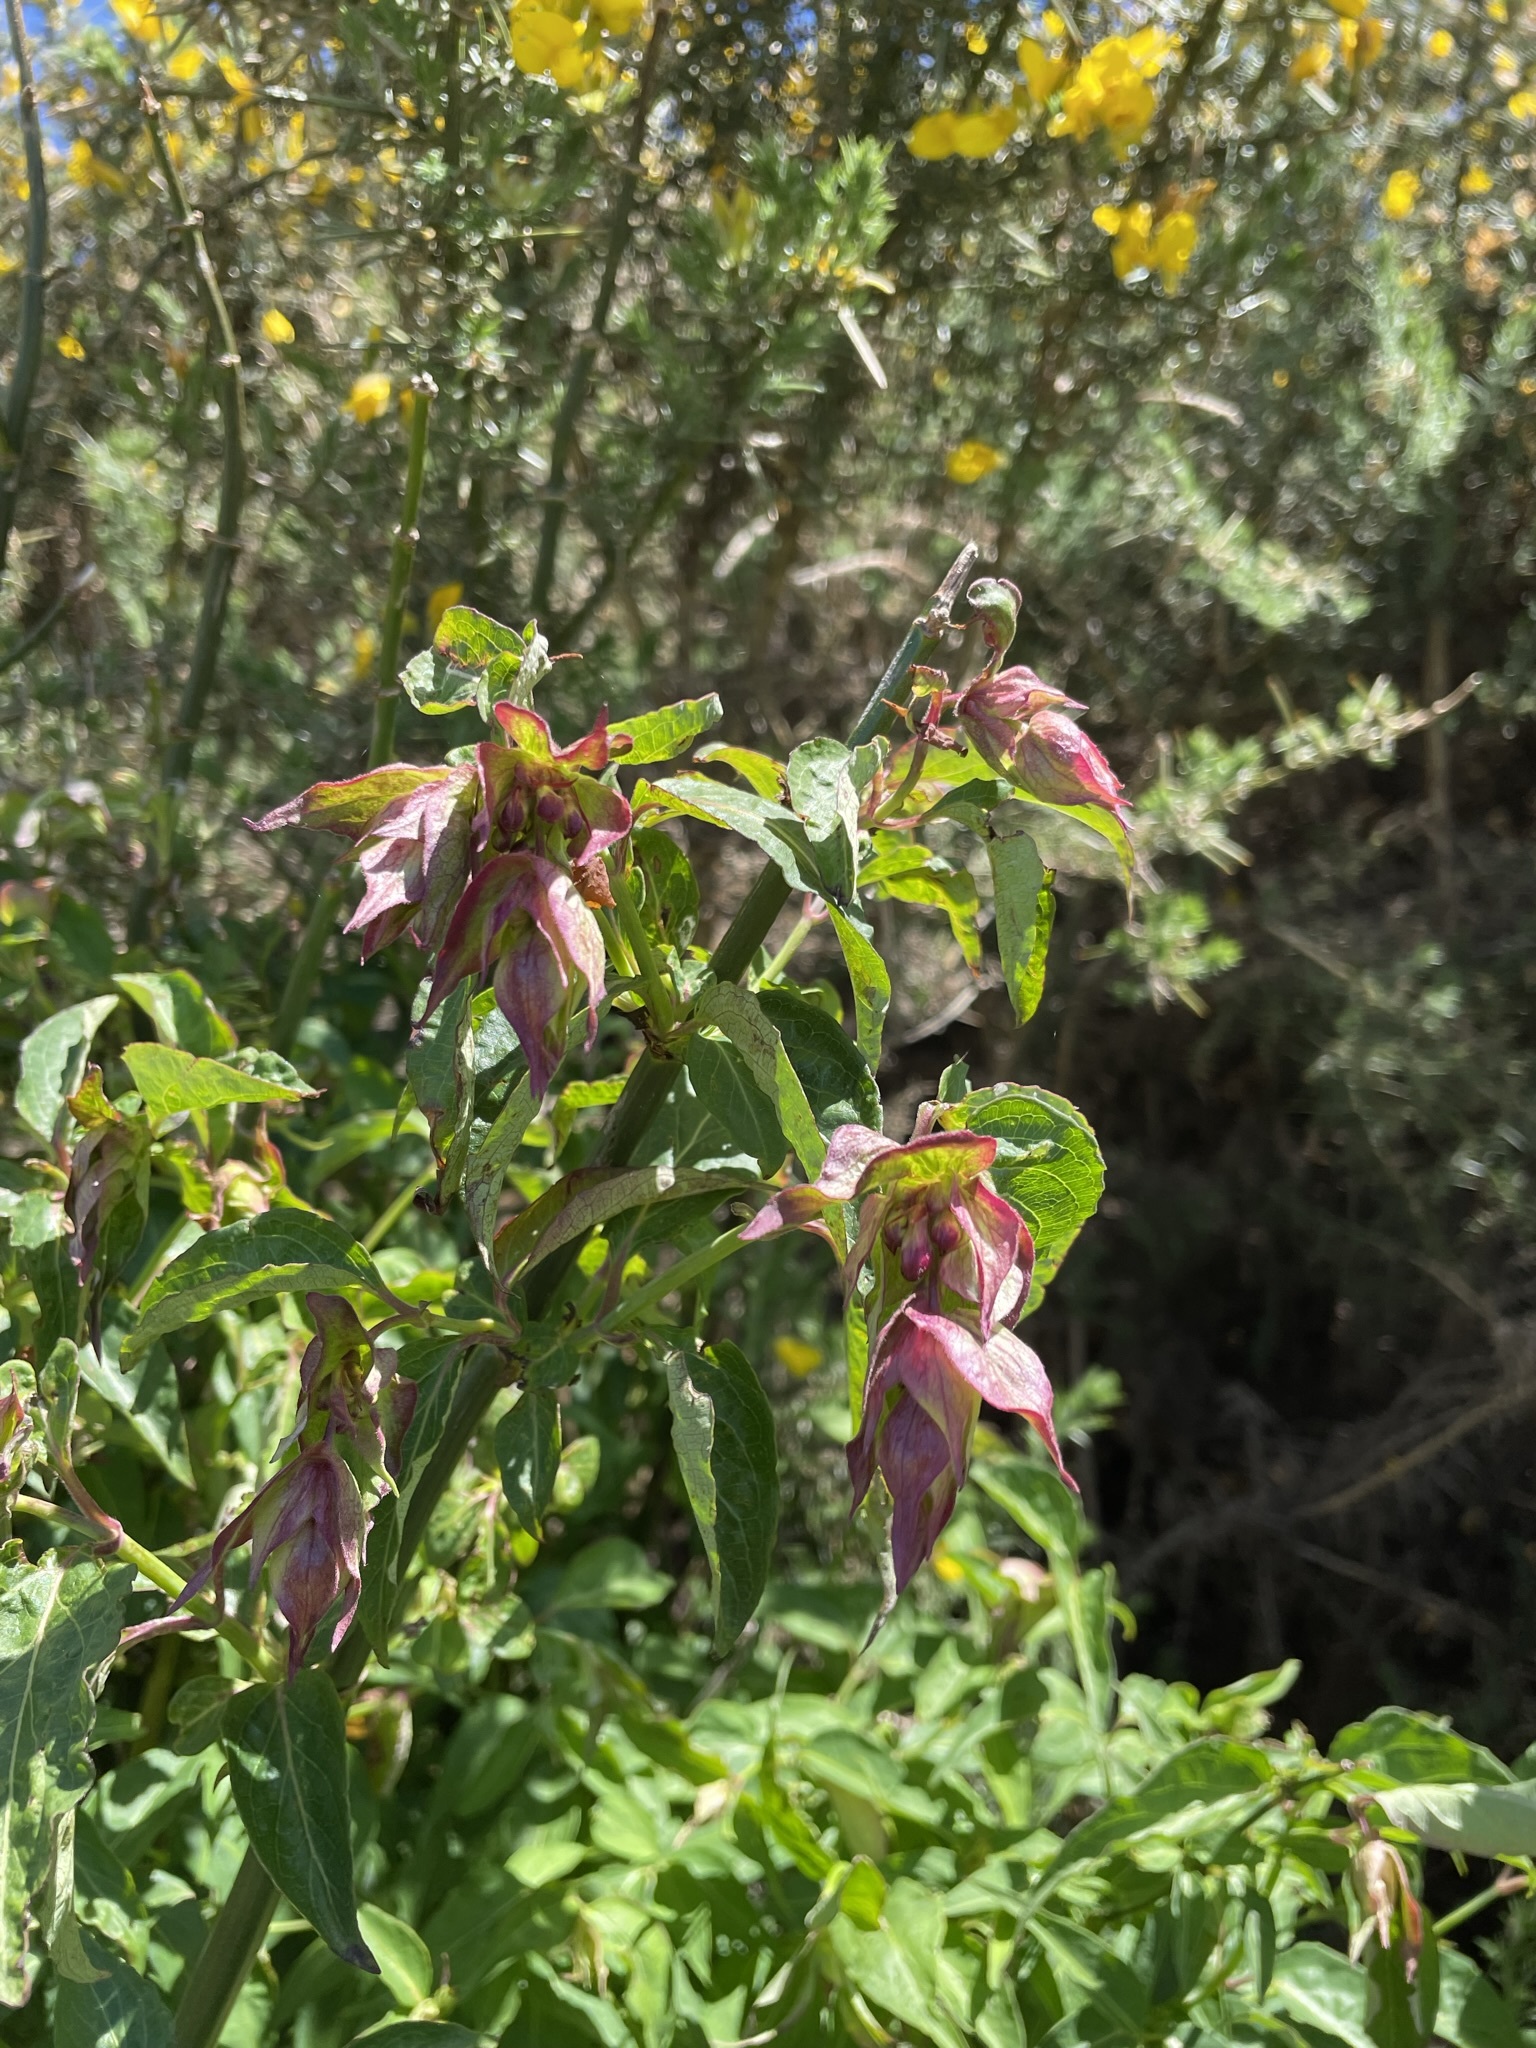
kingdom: Plantae
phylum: Tracheophyta
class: Magnoliopsida
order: Dipsacales
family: Caprifoliaceae
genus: Leycesteria
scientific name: Leycesteria formosa
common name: Himalayan honeysuckle
